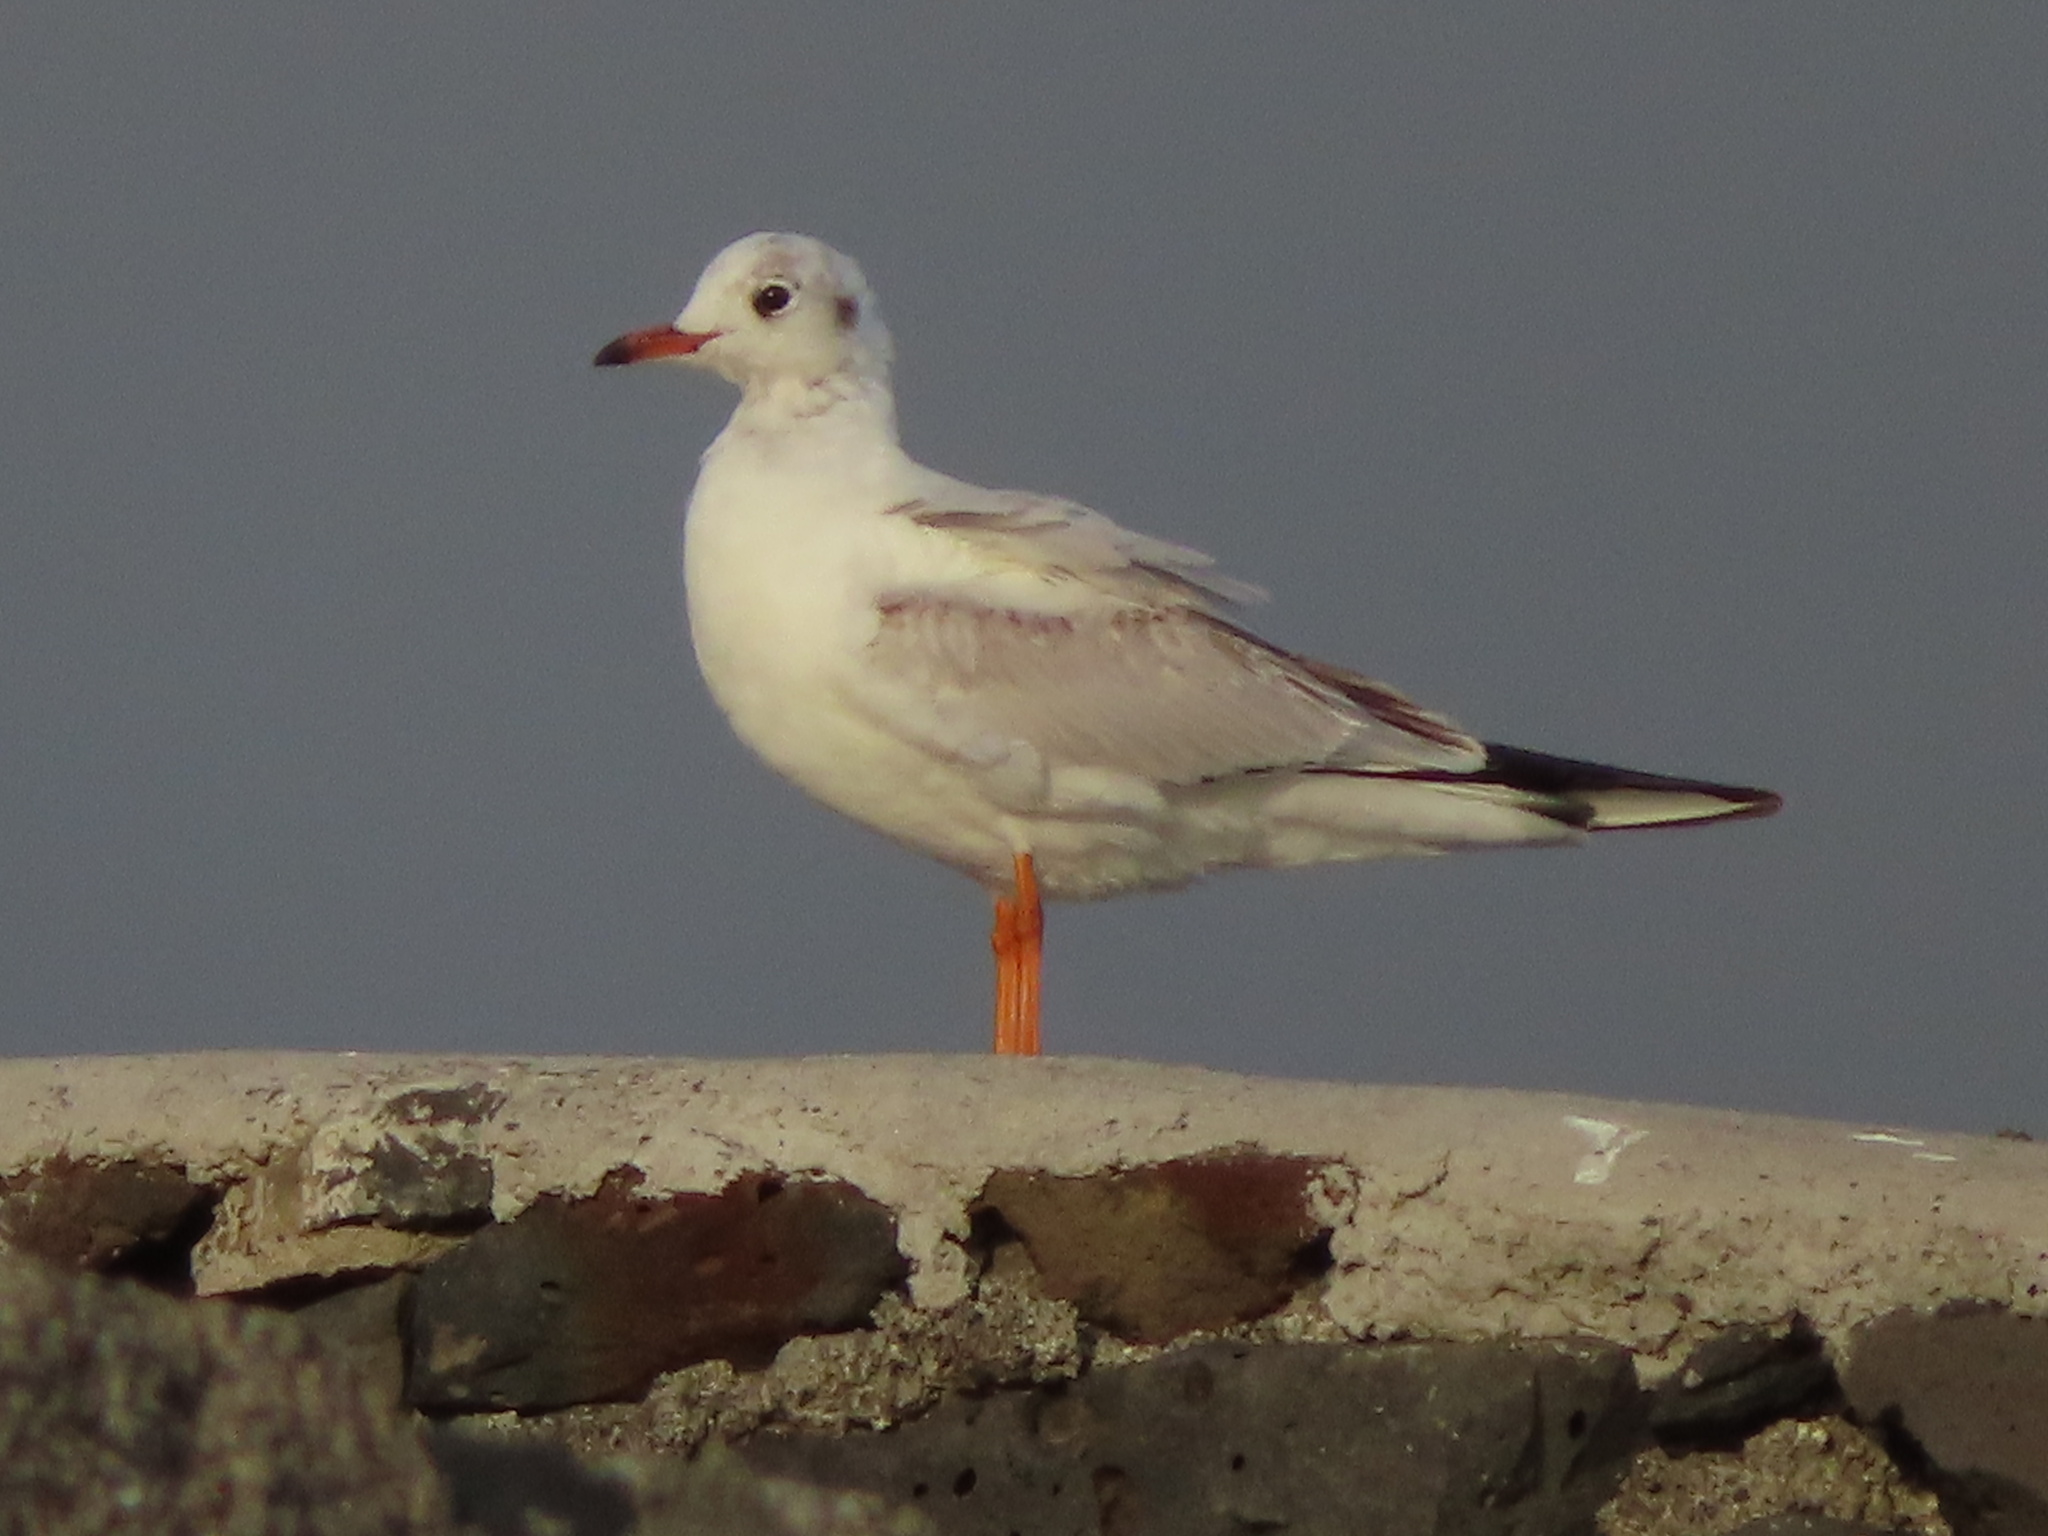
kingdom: Animalia
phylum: Chordata
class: Aves
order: Charadriiformes
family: Laridae
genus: Chroicocephalus
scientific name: Chroicocephalus ridibundus
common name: Black-headed gull
